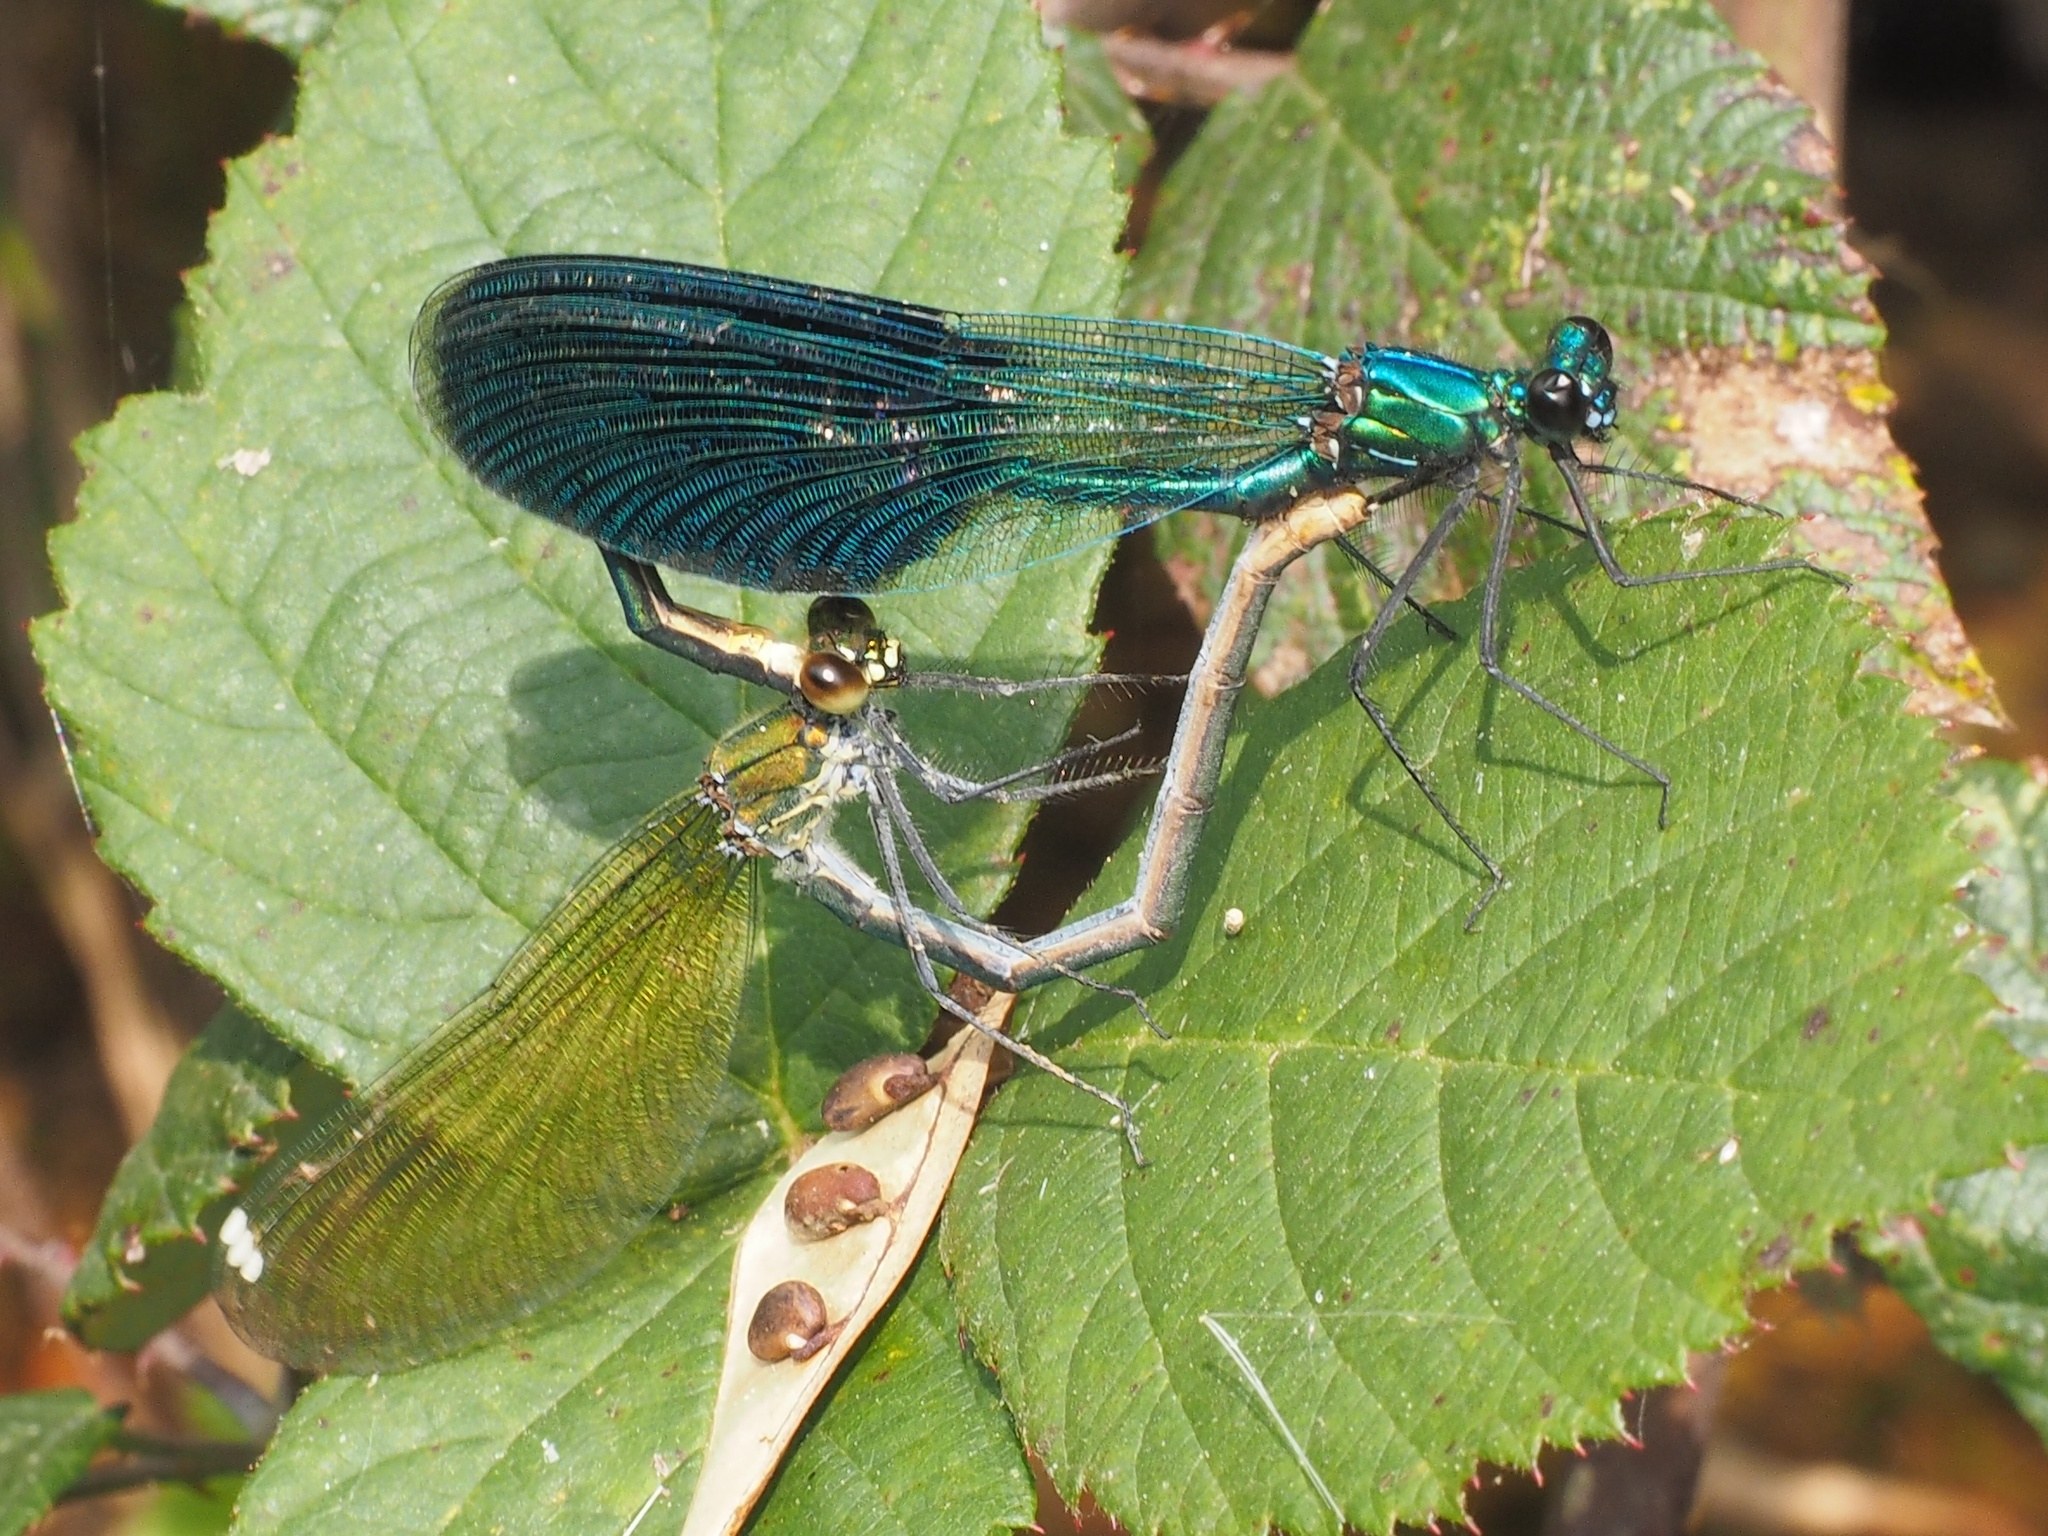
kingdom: Animalia
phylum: Arthropoda
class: Insecta
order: Odonata
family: Calopterygidae
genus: Calopteryx
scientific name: Calopteryx splendens
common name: Banded demoiselle
